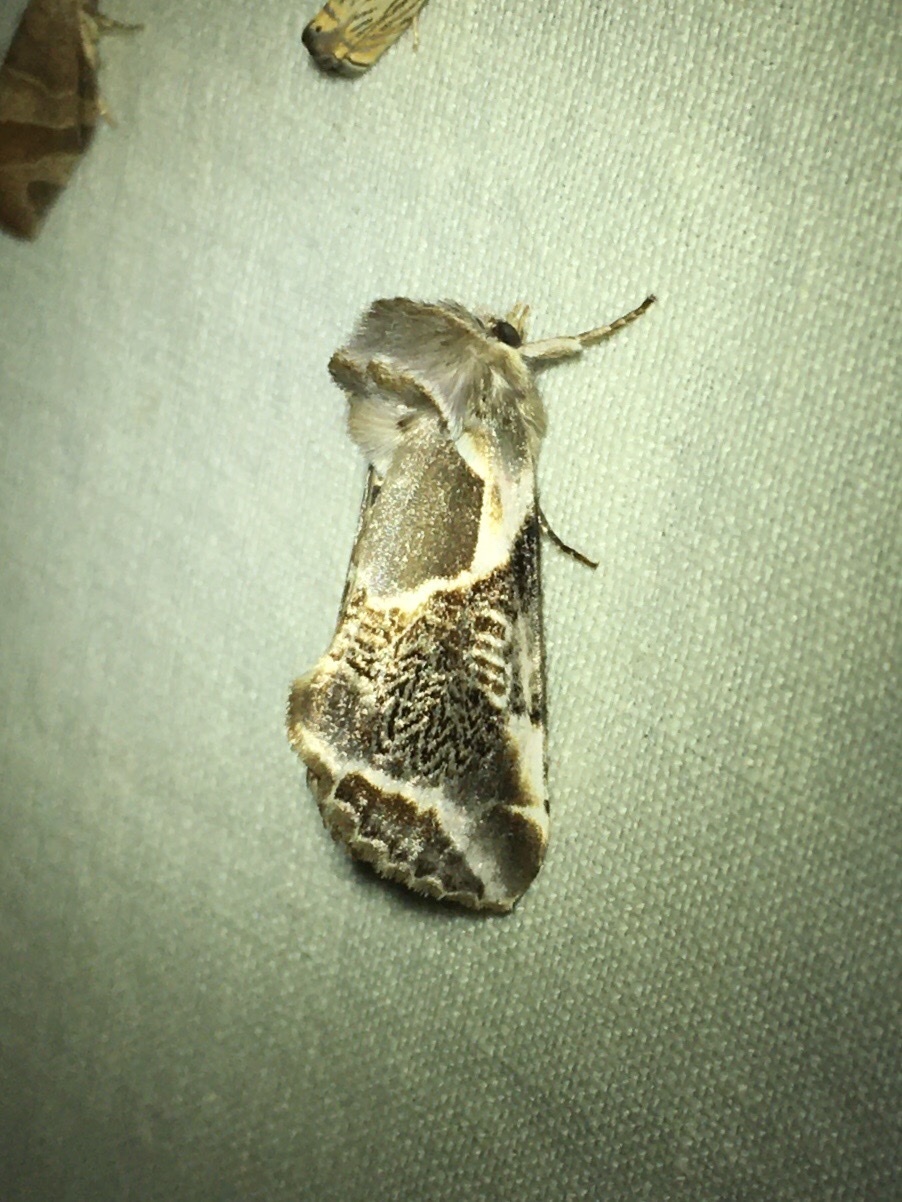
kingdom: Animalia
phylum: Arthropoda
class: Insecta
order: Lepidoptera
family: Drepanidae
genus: Habrosyne
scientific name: Habrosyne scripta
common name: Lettered habrosyne moth
